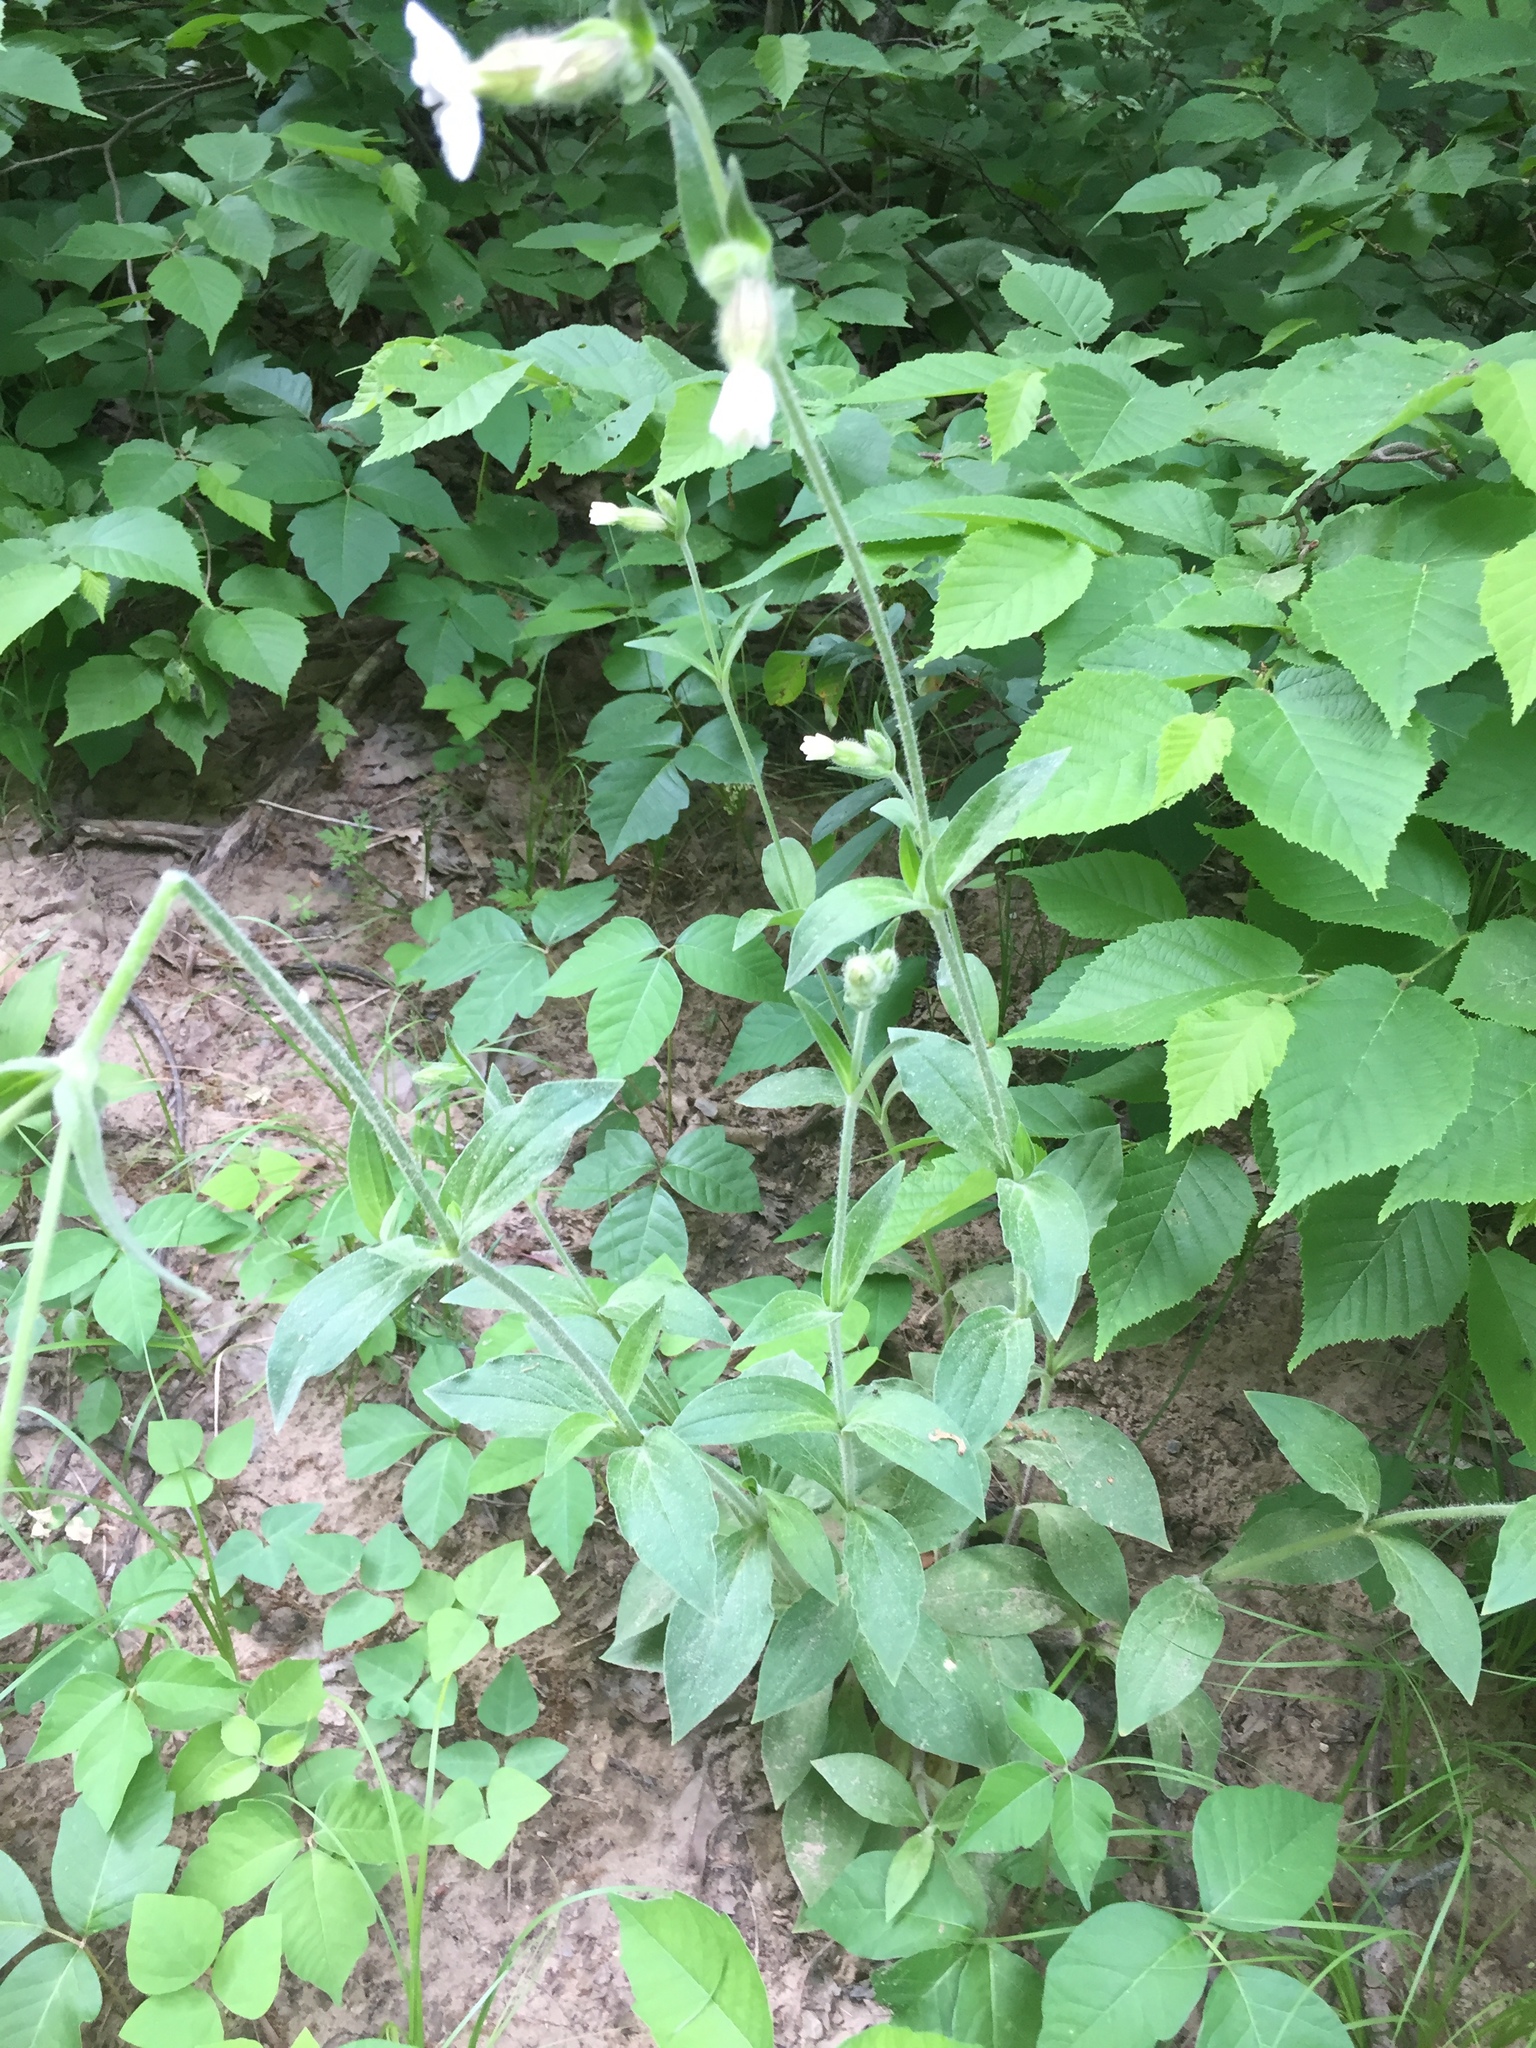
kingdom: Plantae
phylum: Tracheophyta
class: Magnoliopsida
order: Caryophyllales
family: Caryophyllaceae
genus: Silene
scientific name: Silene latifolia
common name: White campion
